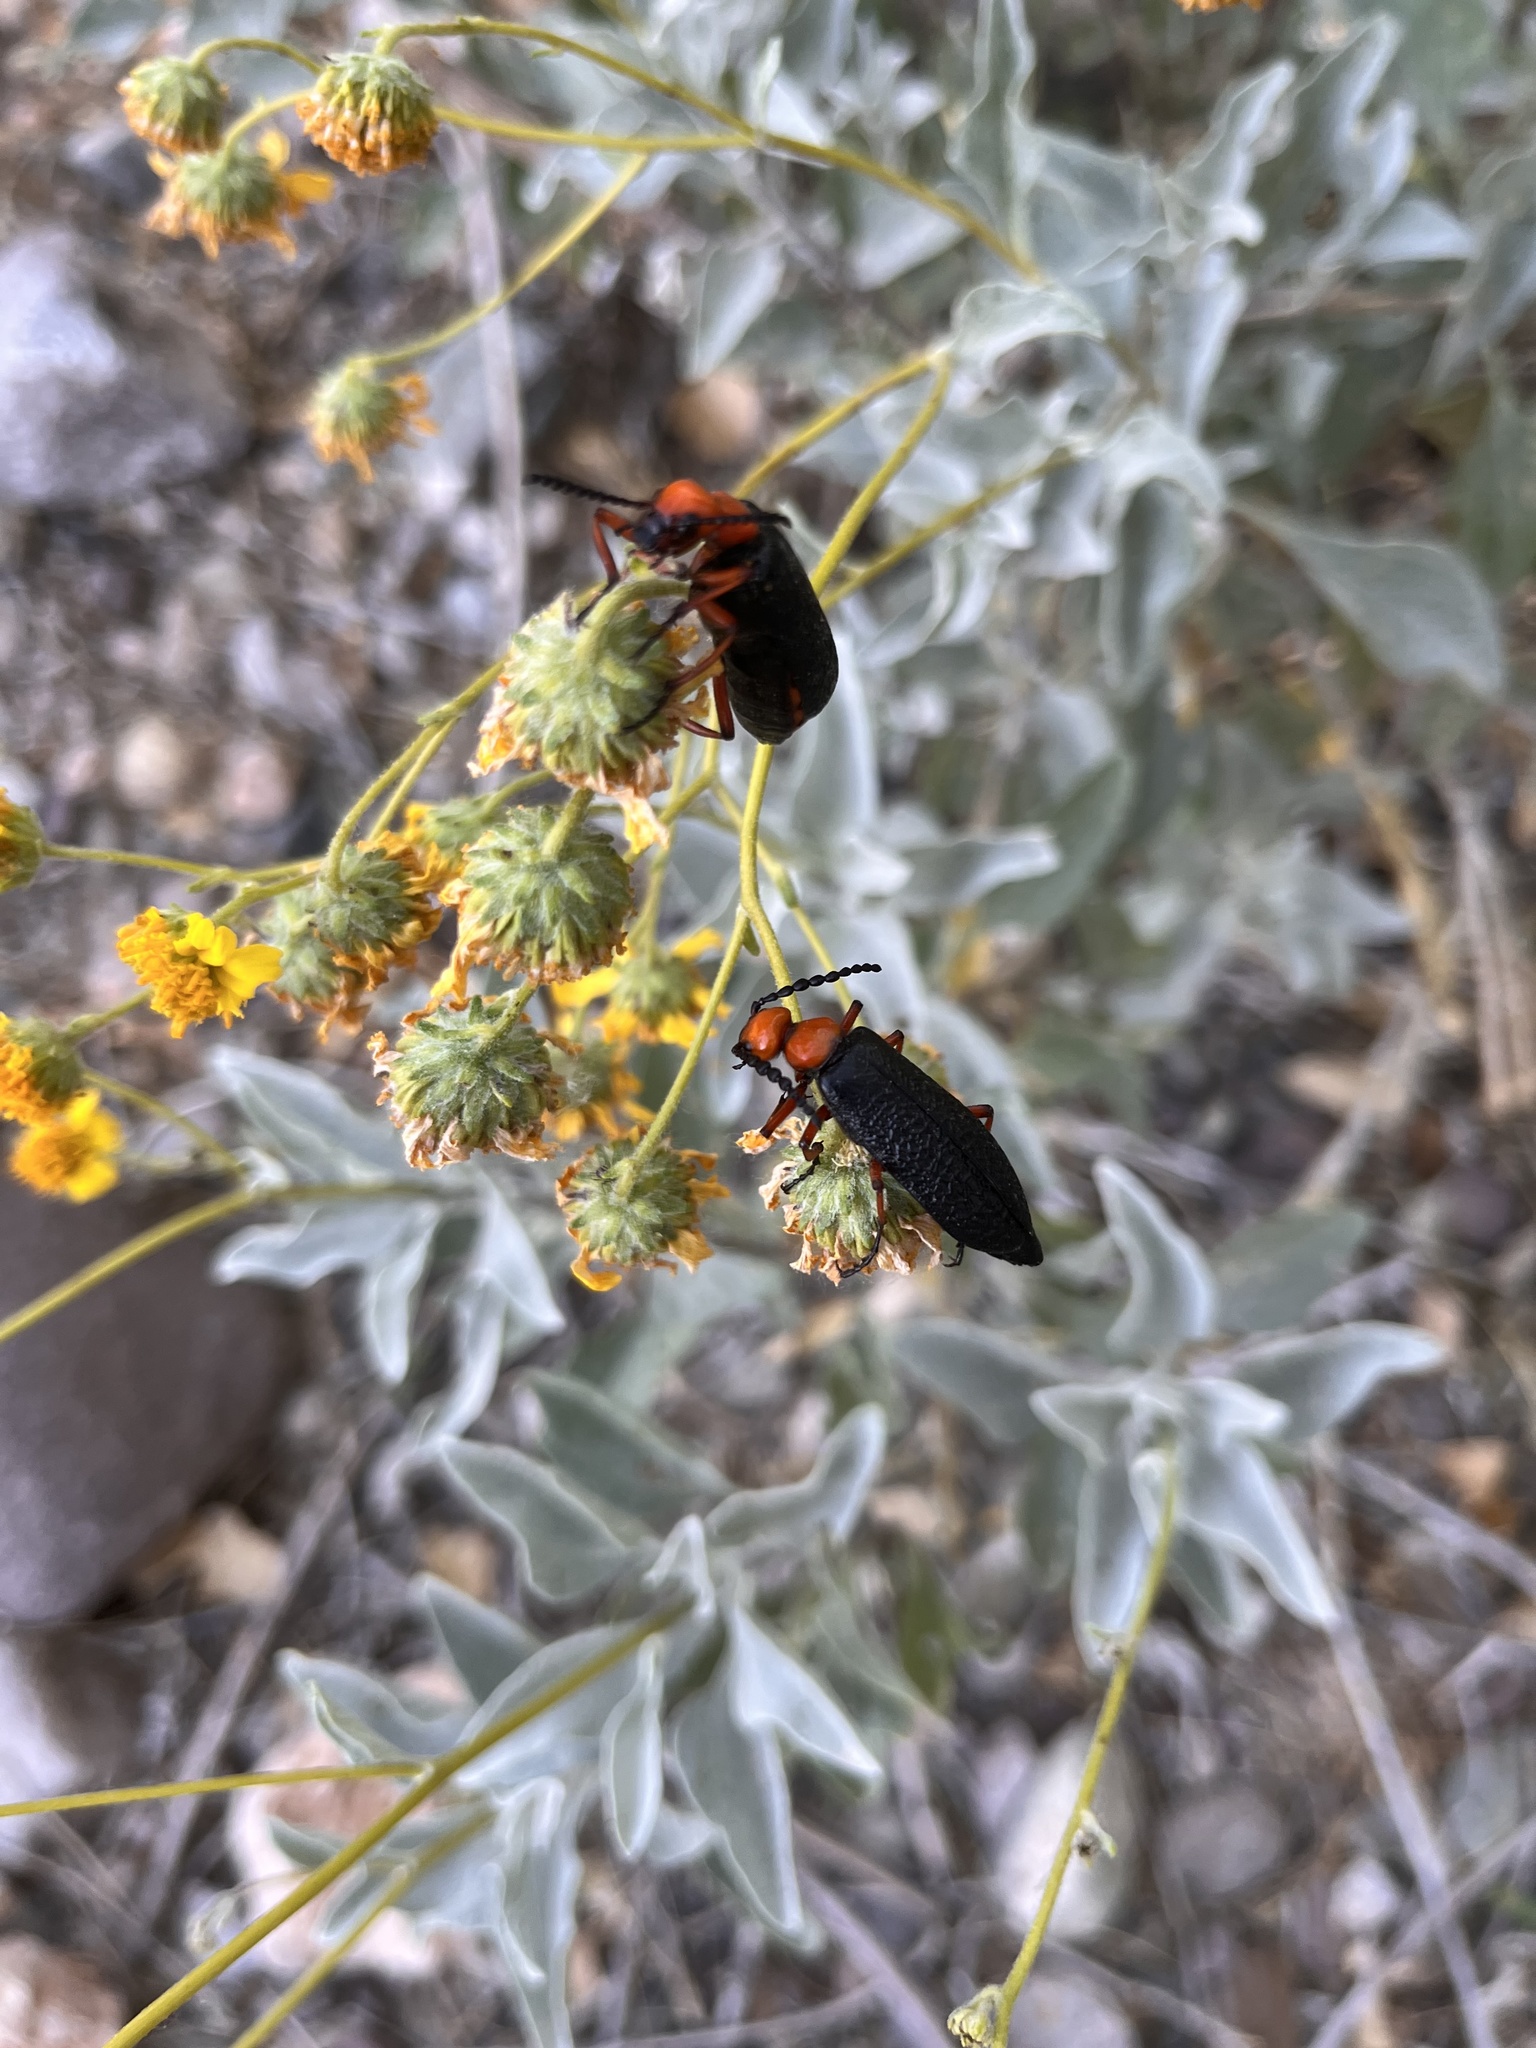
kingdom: Animalia
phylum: Arthropoda
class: Insecta
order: Coleoptera
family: Meloidae
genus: Lytta
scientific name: Lytta magister
